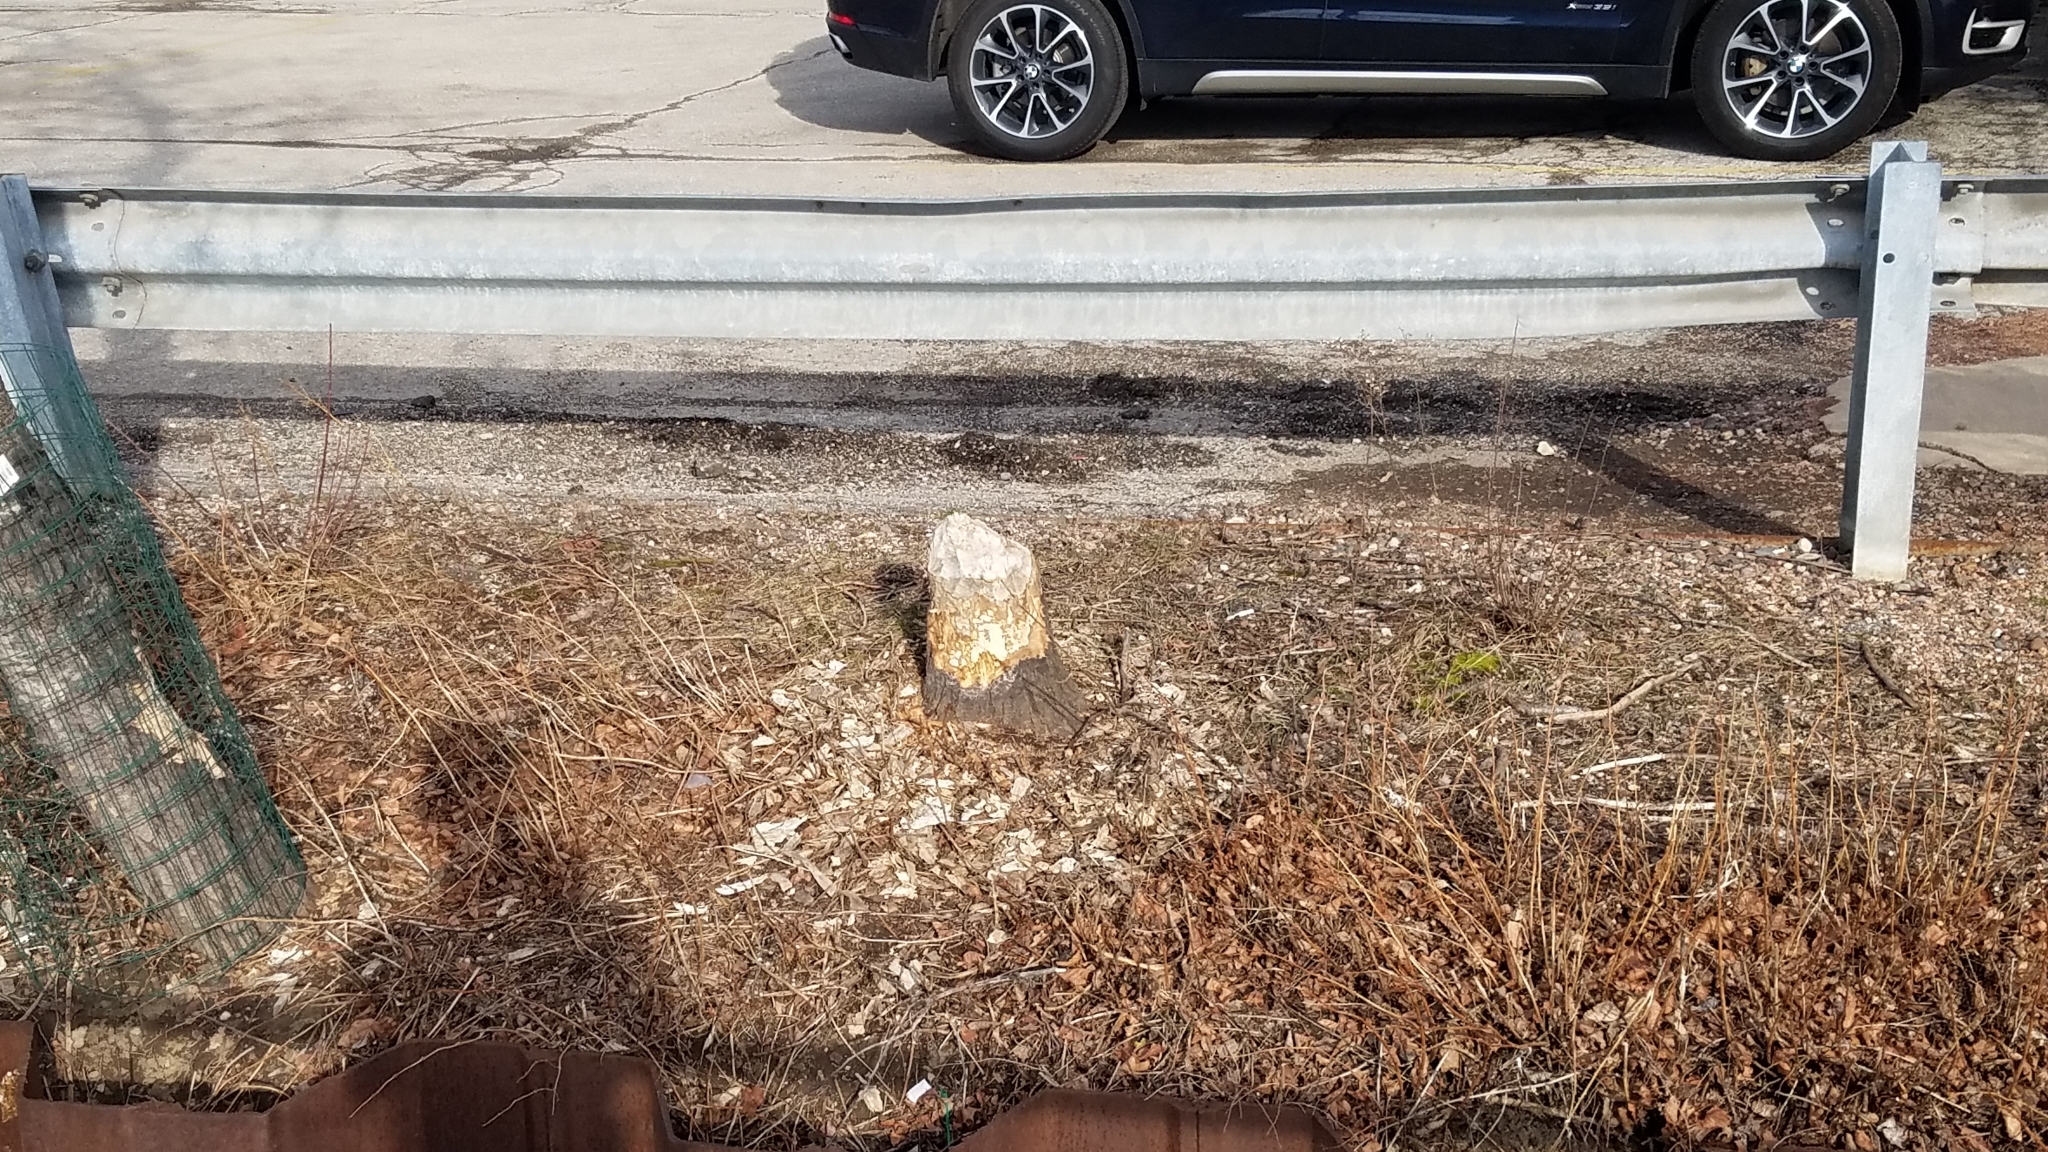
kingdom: Animalia
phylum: Chordata
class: Mammalia
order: Rodentia
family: Castoridae
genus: Castor
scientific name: Castor canadensis
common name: American beaver
